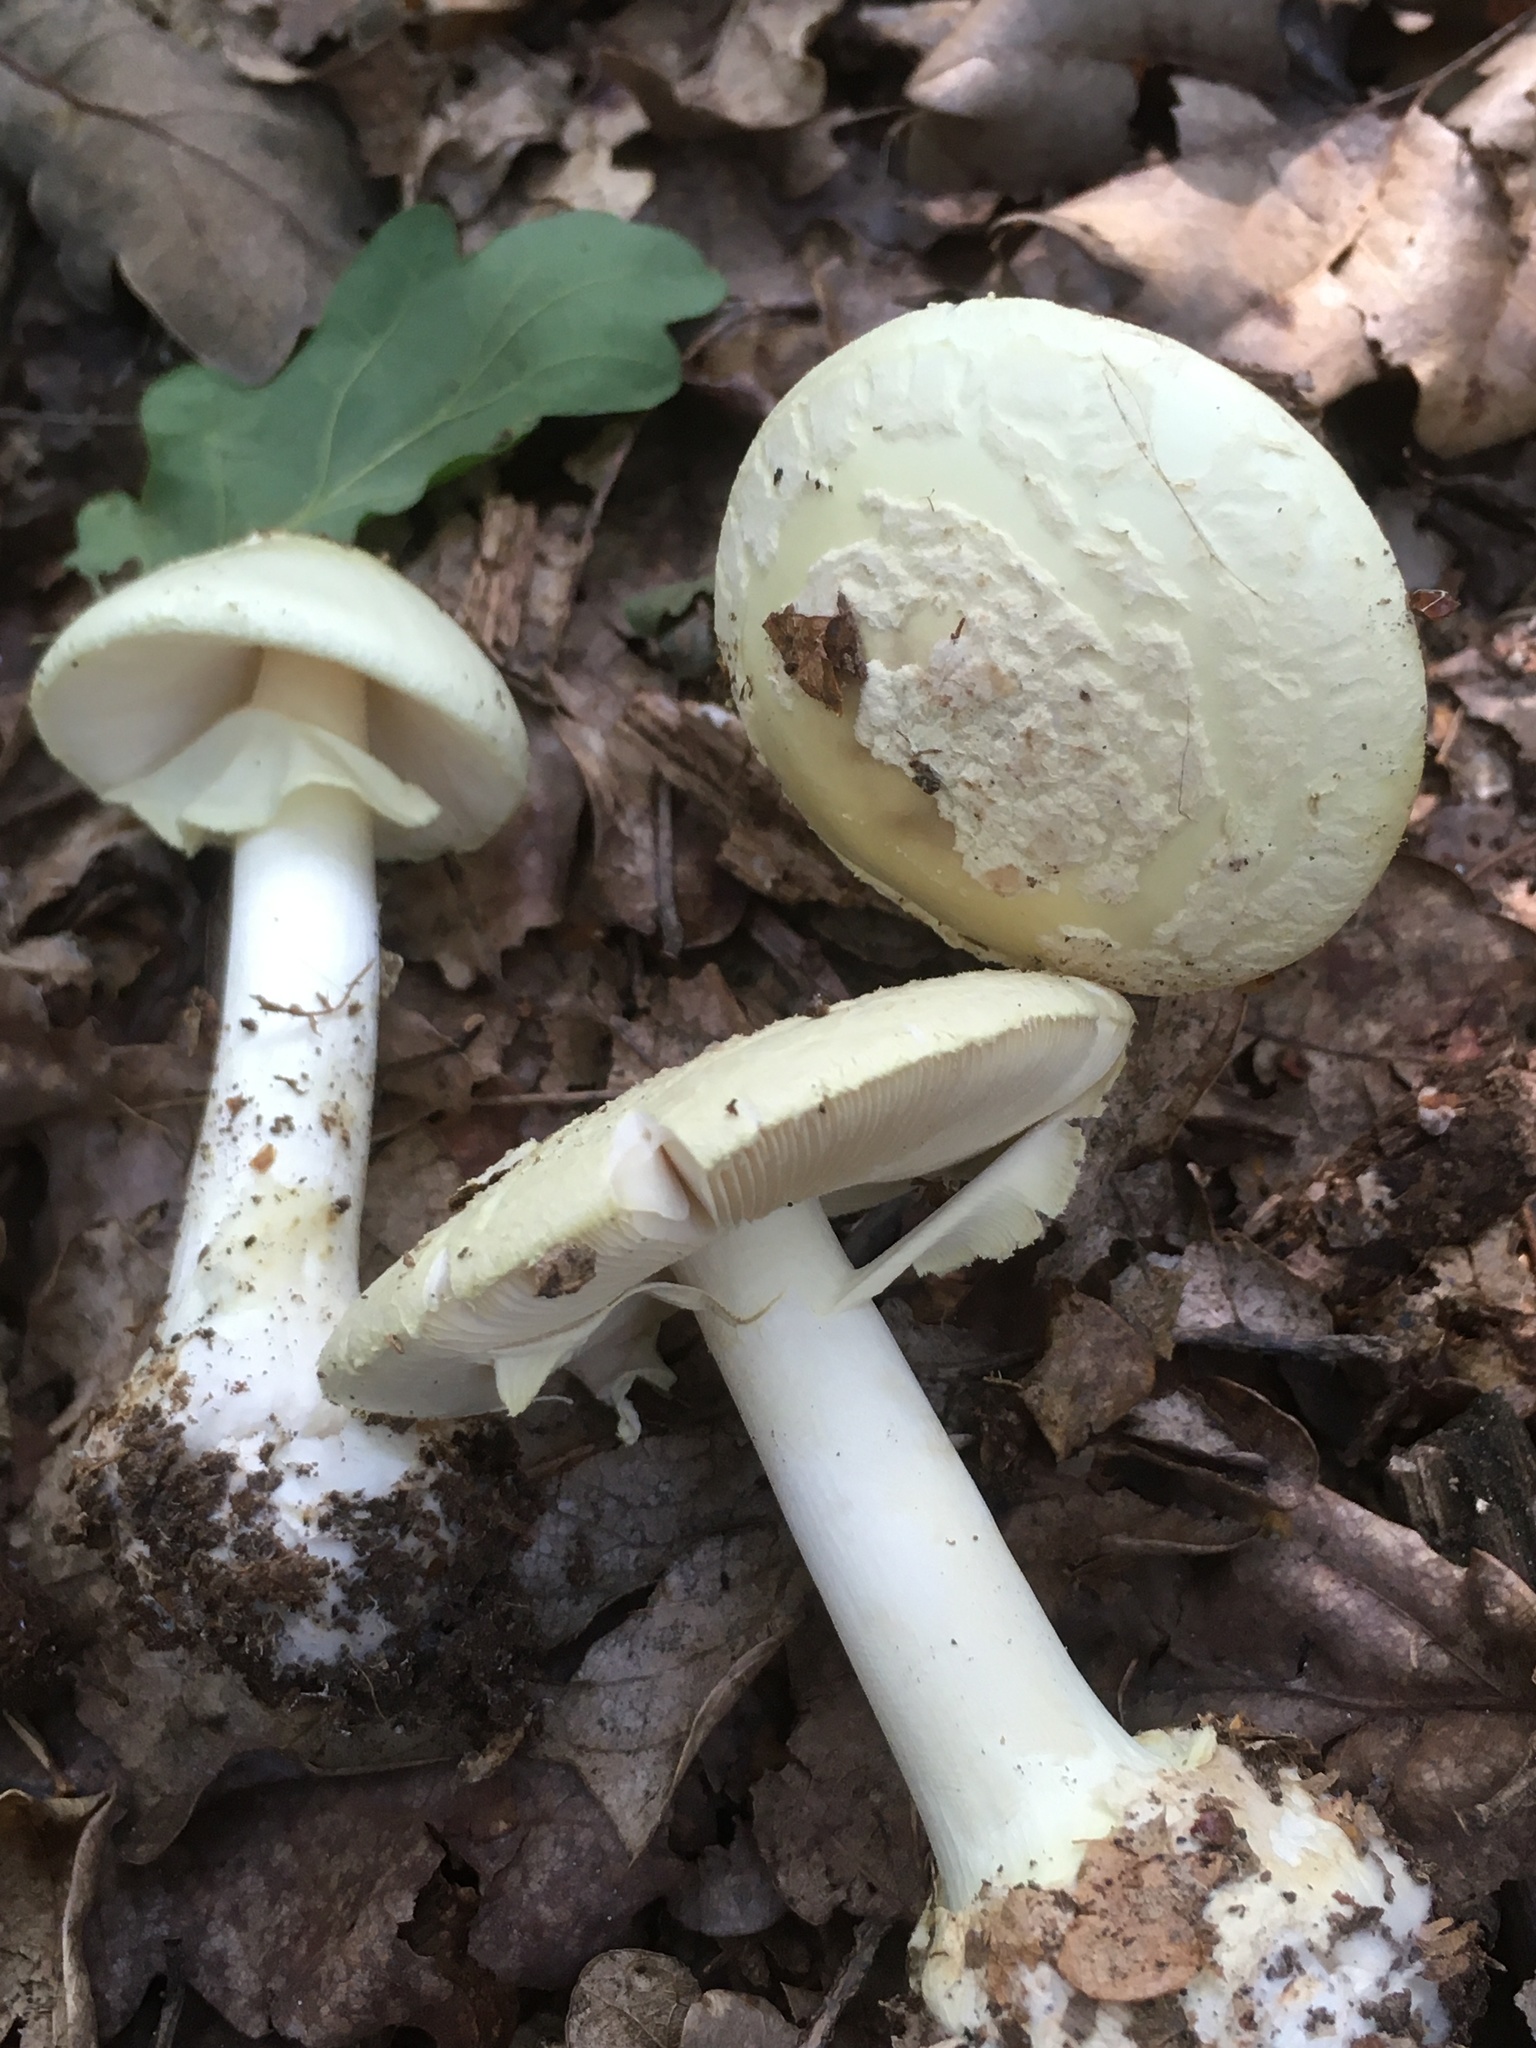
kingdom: Fungi
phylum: Basidiomycota
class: Agaricomycetes
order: Agaricales
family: Amanitaceae
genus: Amanita
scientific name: Amanita citrina
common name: False death-cap
